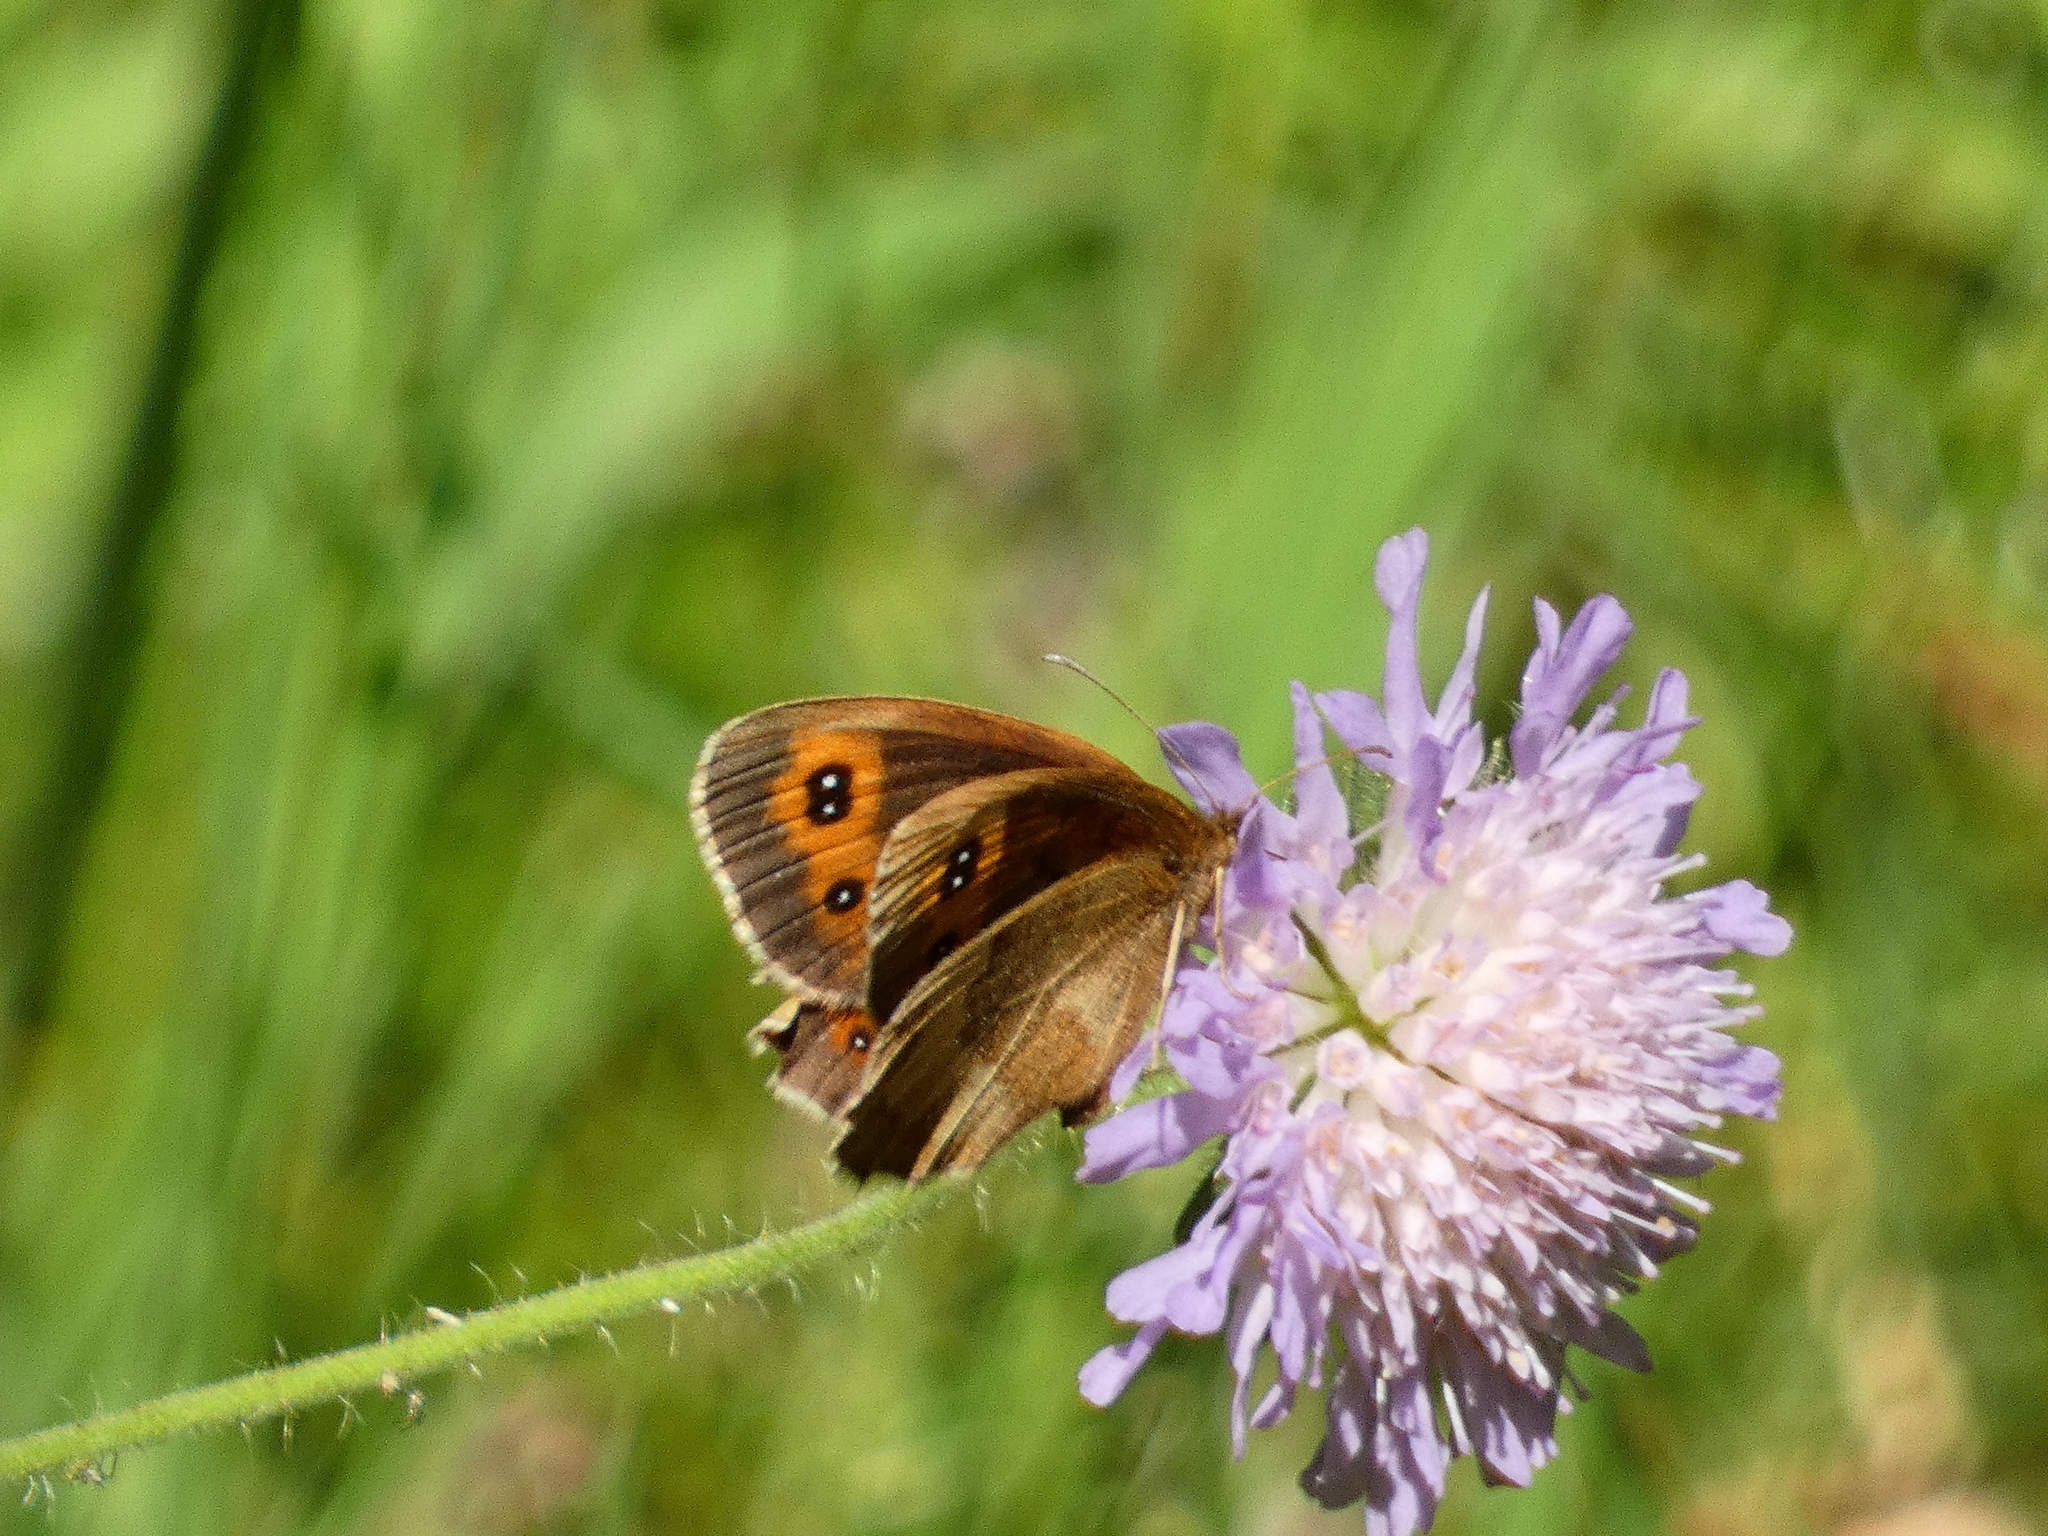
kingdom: Animalia
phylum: Arthropoda
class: Insecta
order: Lepidoptera
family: Nymphalidae
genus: Erebia
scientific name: Erebia aethiops
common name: Scotch argus
